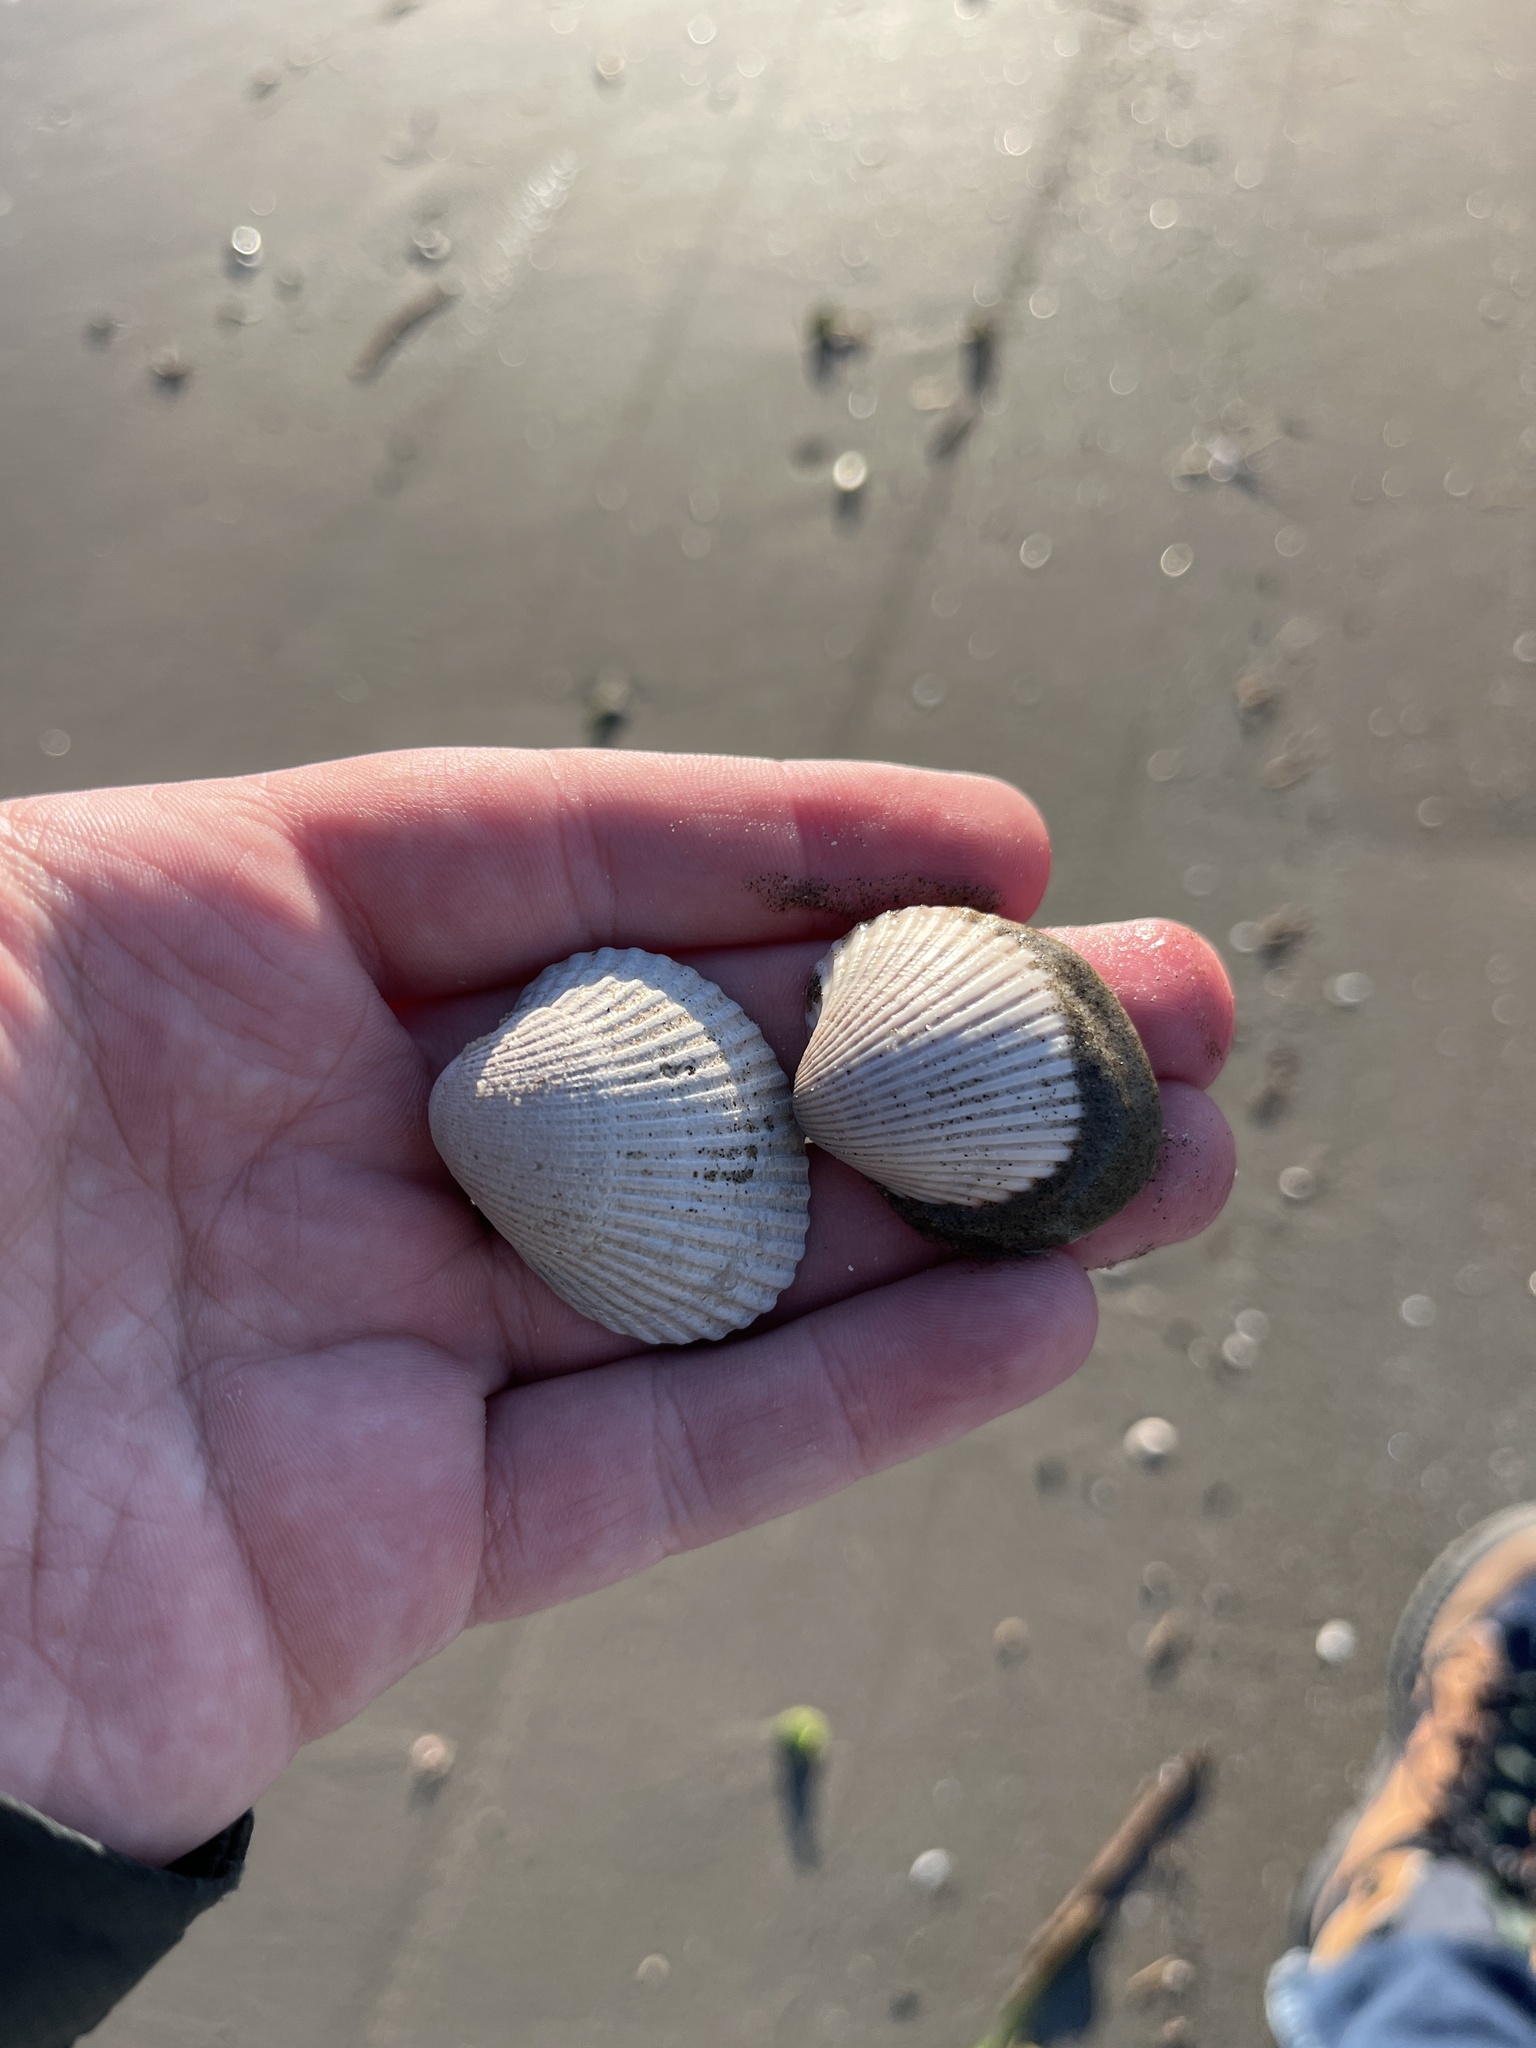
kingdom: Animalia
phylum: Mollusca
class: Bivalvia
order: Arcida
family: Arcidae
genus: Lunarca
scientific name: Lunarca ovalis
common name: Blood ark
